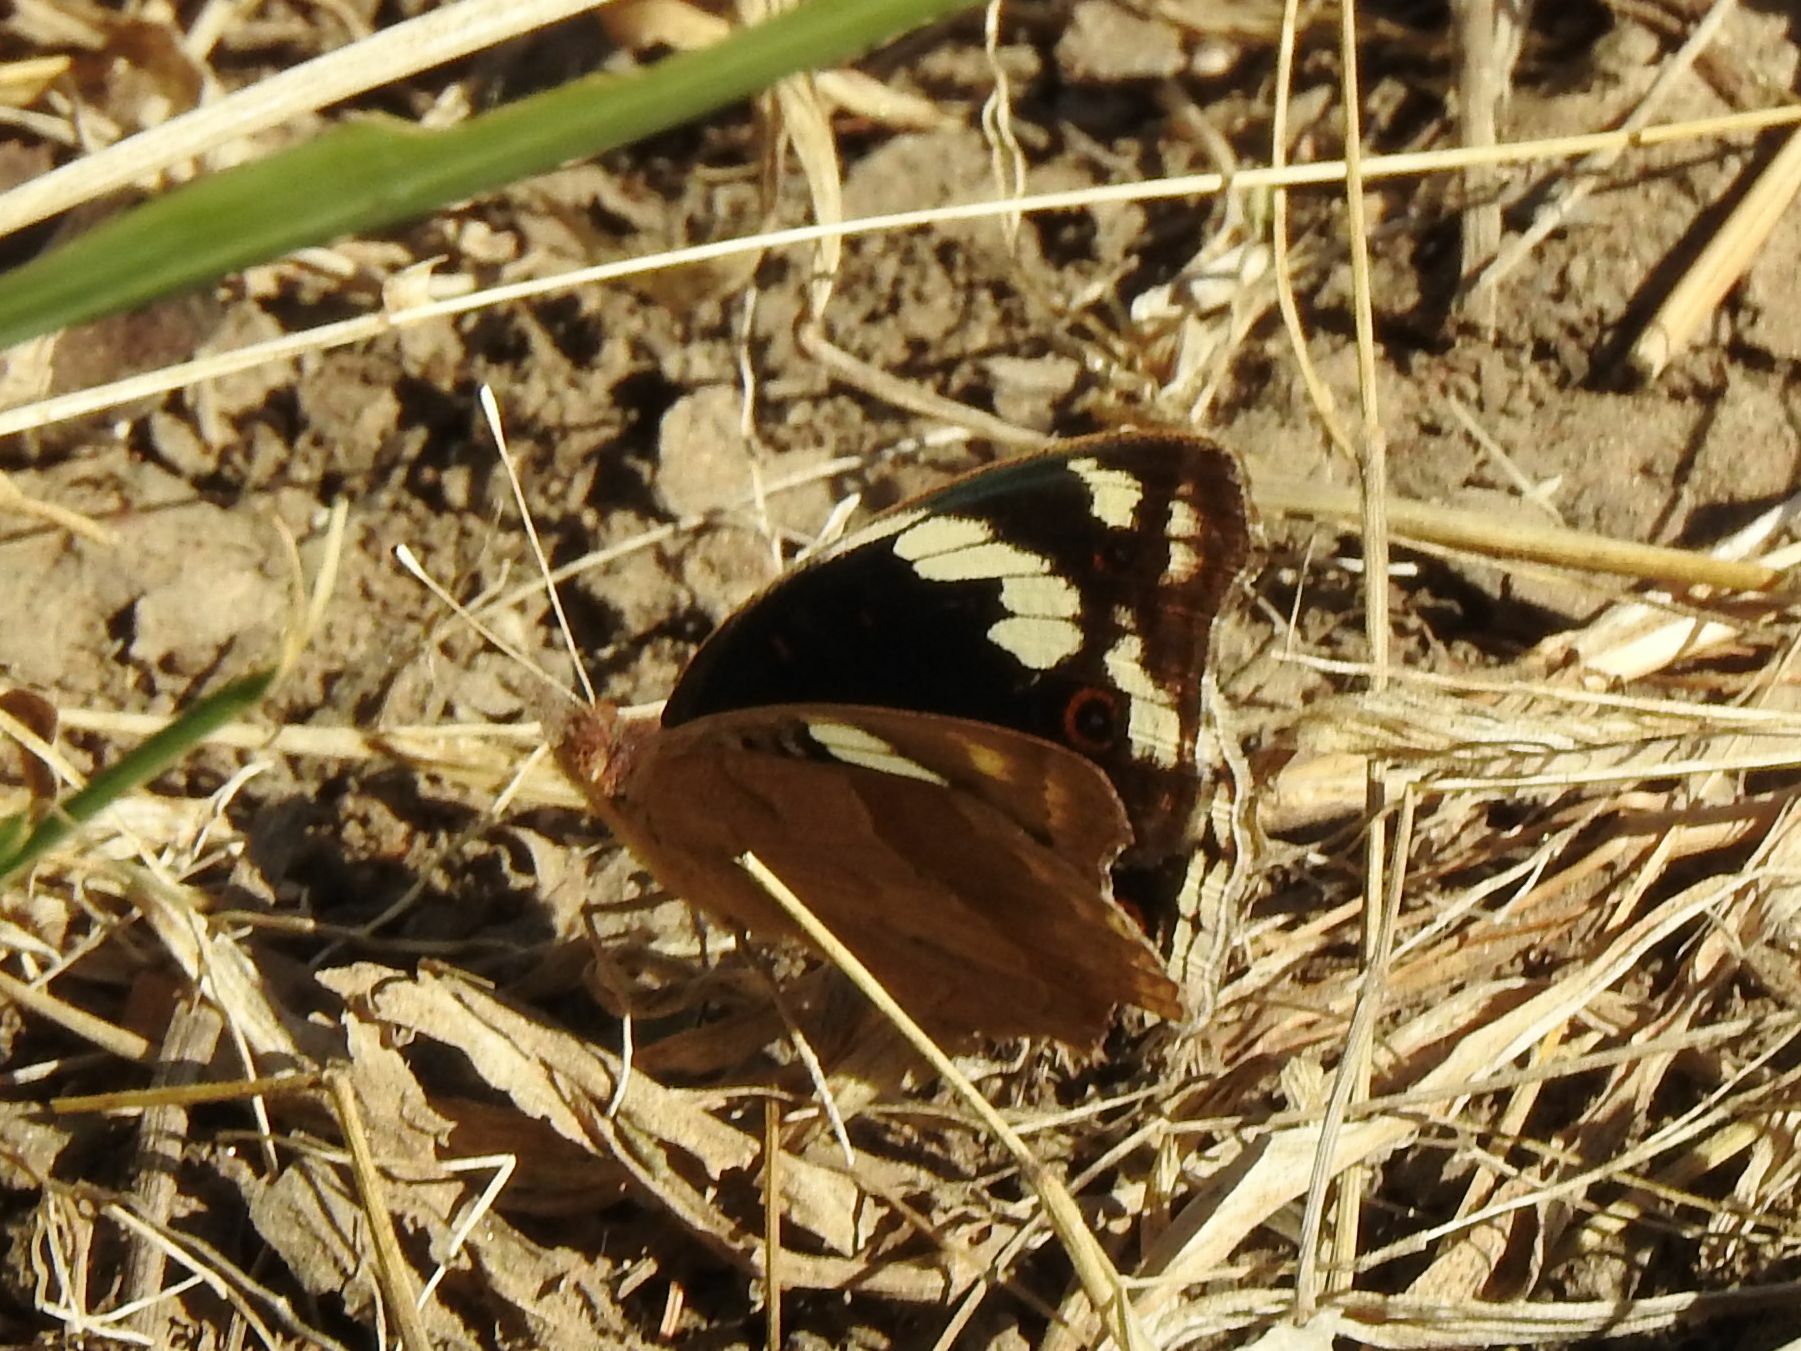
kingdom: Animalia
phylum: Arthropoda
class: Insecta
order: Lepidoptera
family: Nymphalidae
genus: Junonia
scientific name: Junonia oenone
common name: Dark blue pansy
